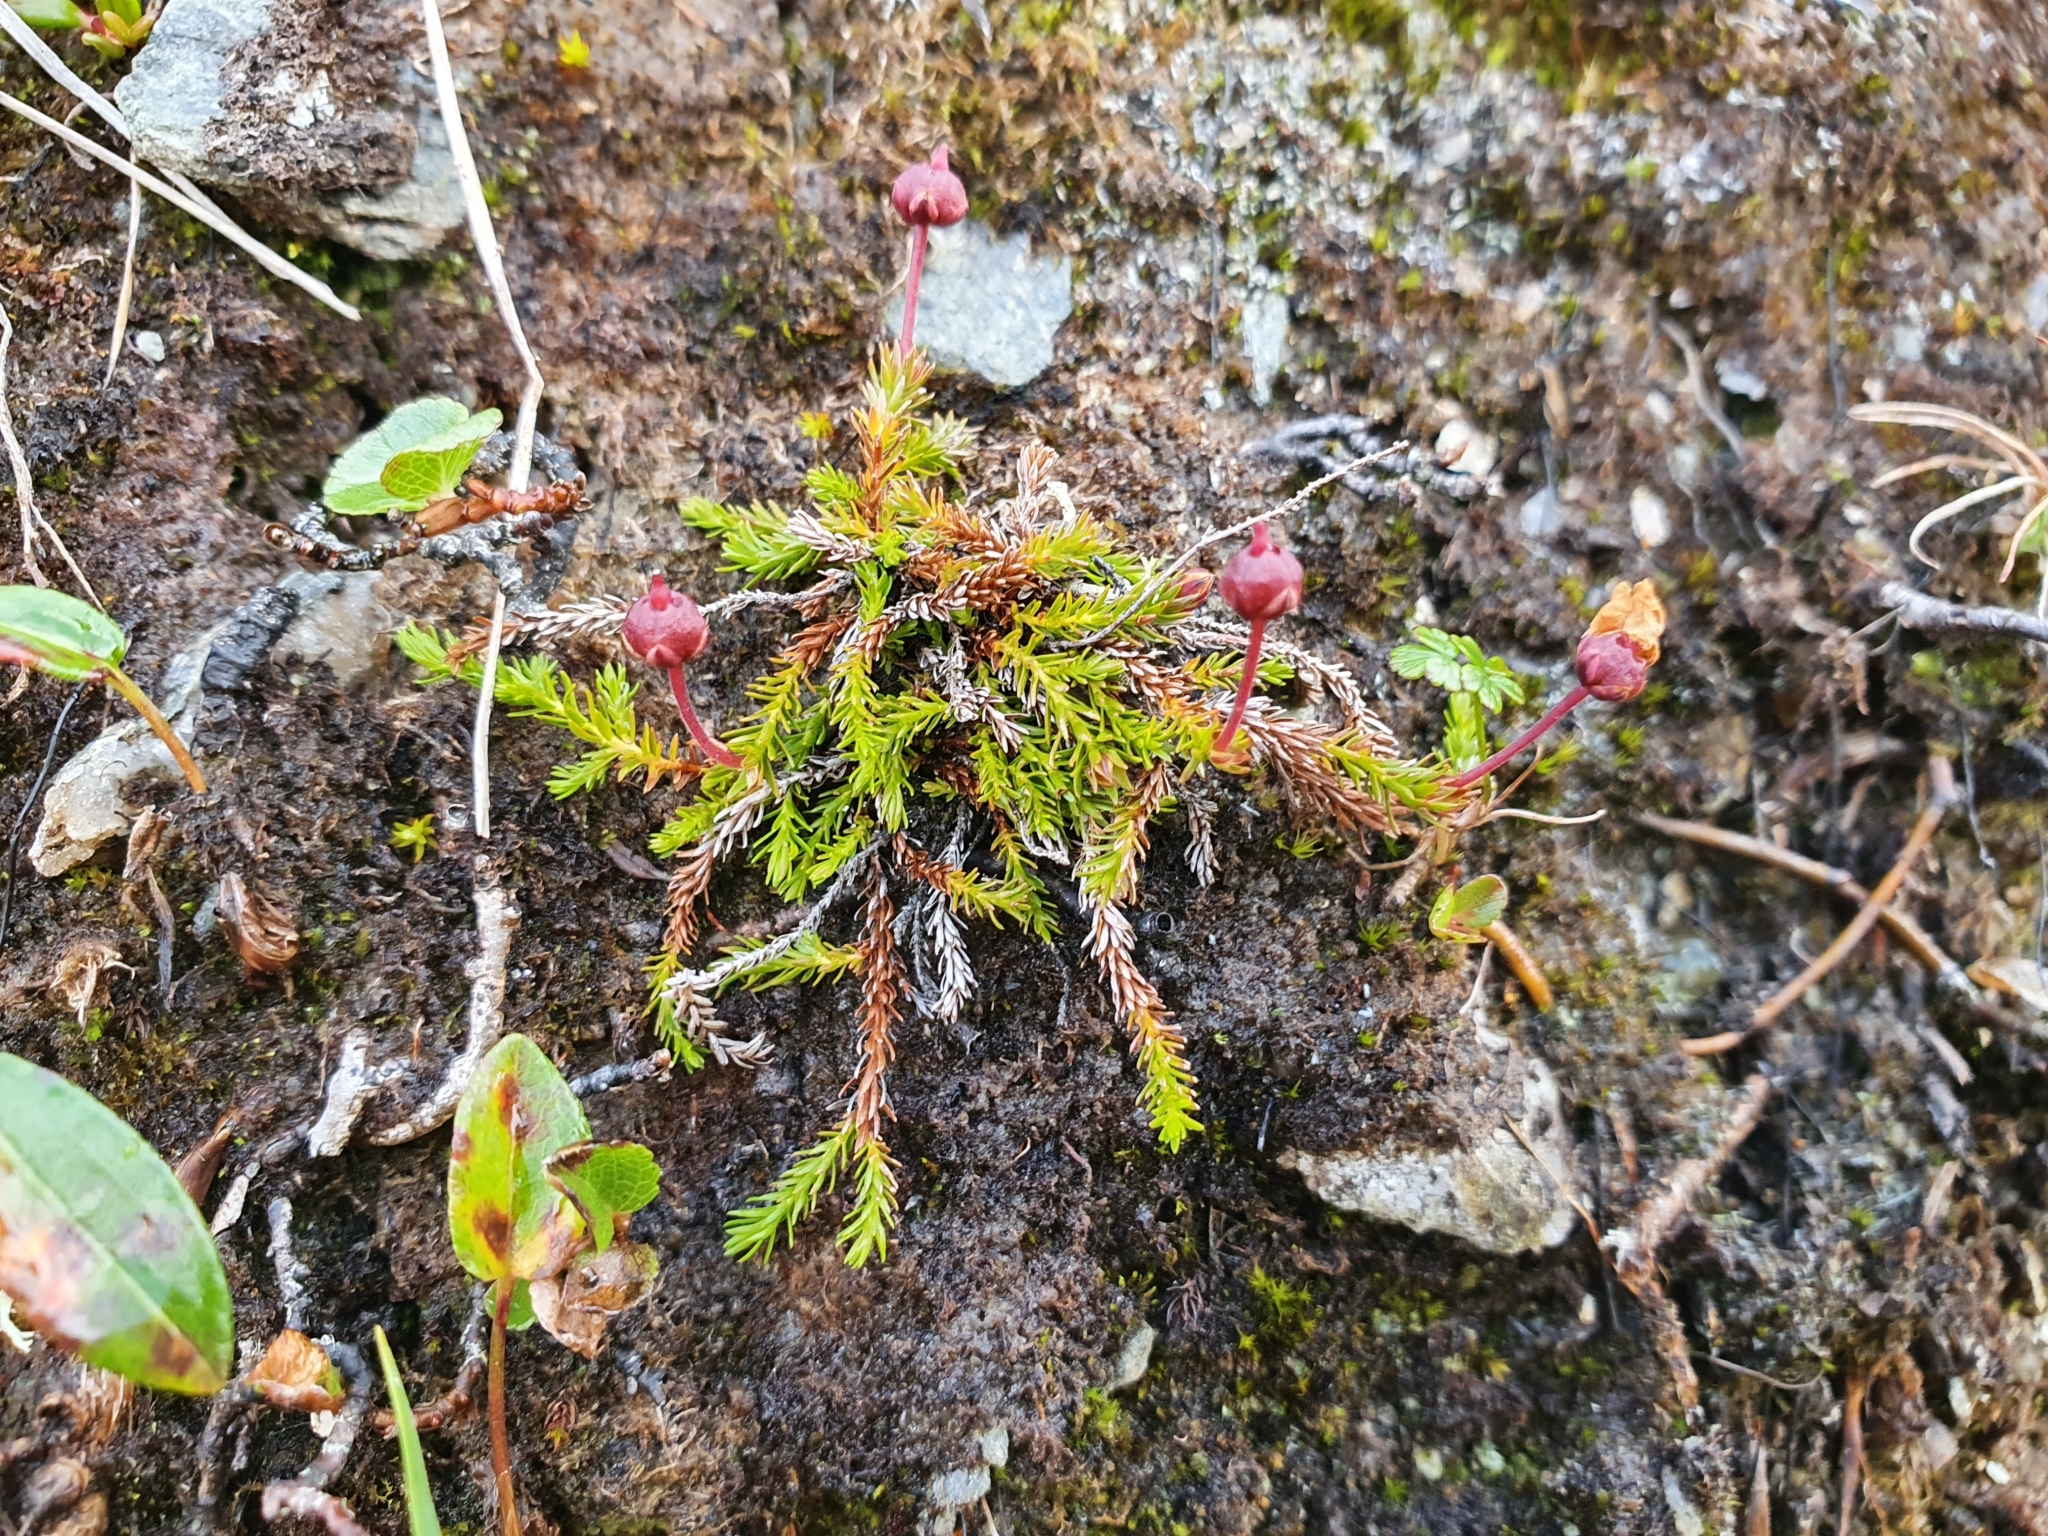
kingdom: Plantae
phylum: Tracheophyta
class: Magnoliopsida
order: Ericales
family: Ericaceae
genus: Harrimanella
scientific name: Harrimanella hypnoides
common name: Moss bell heather
